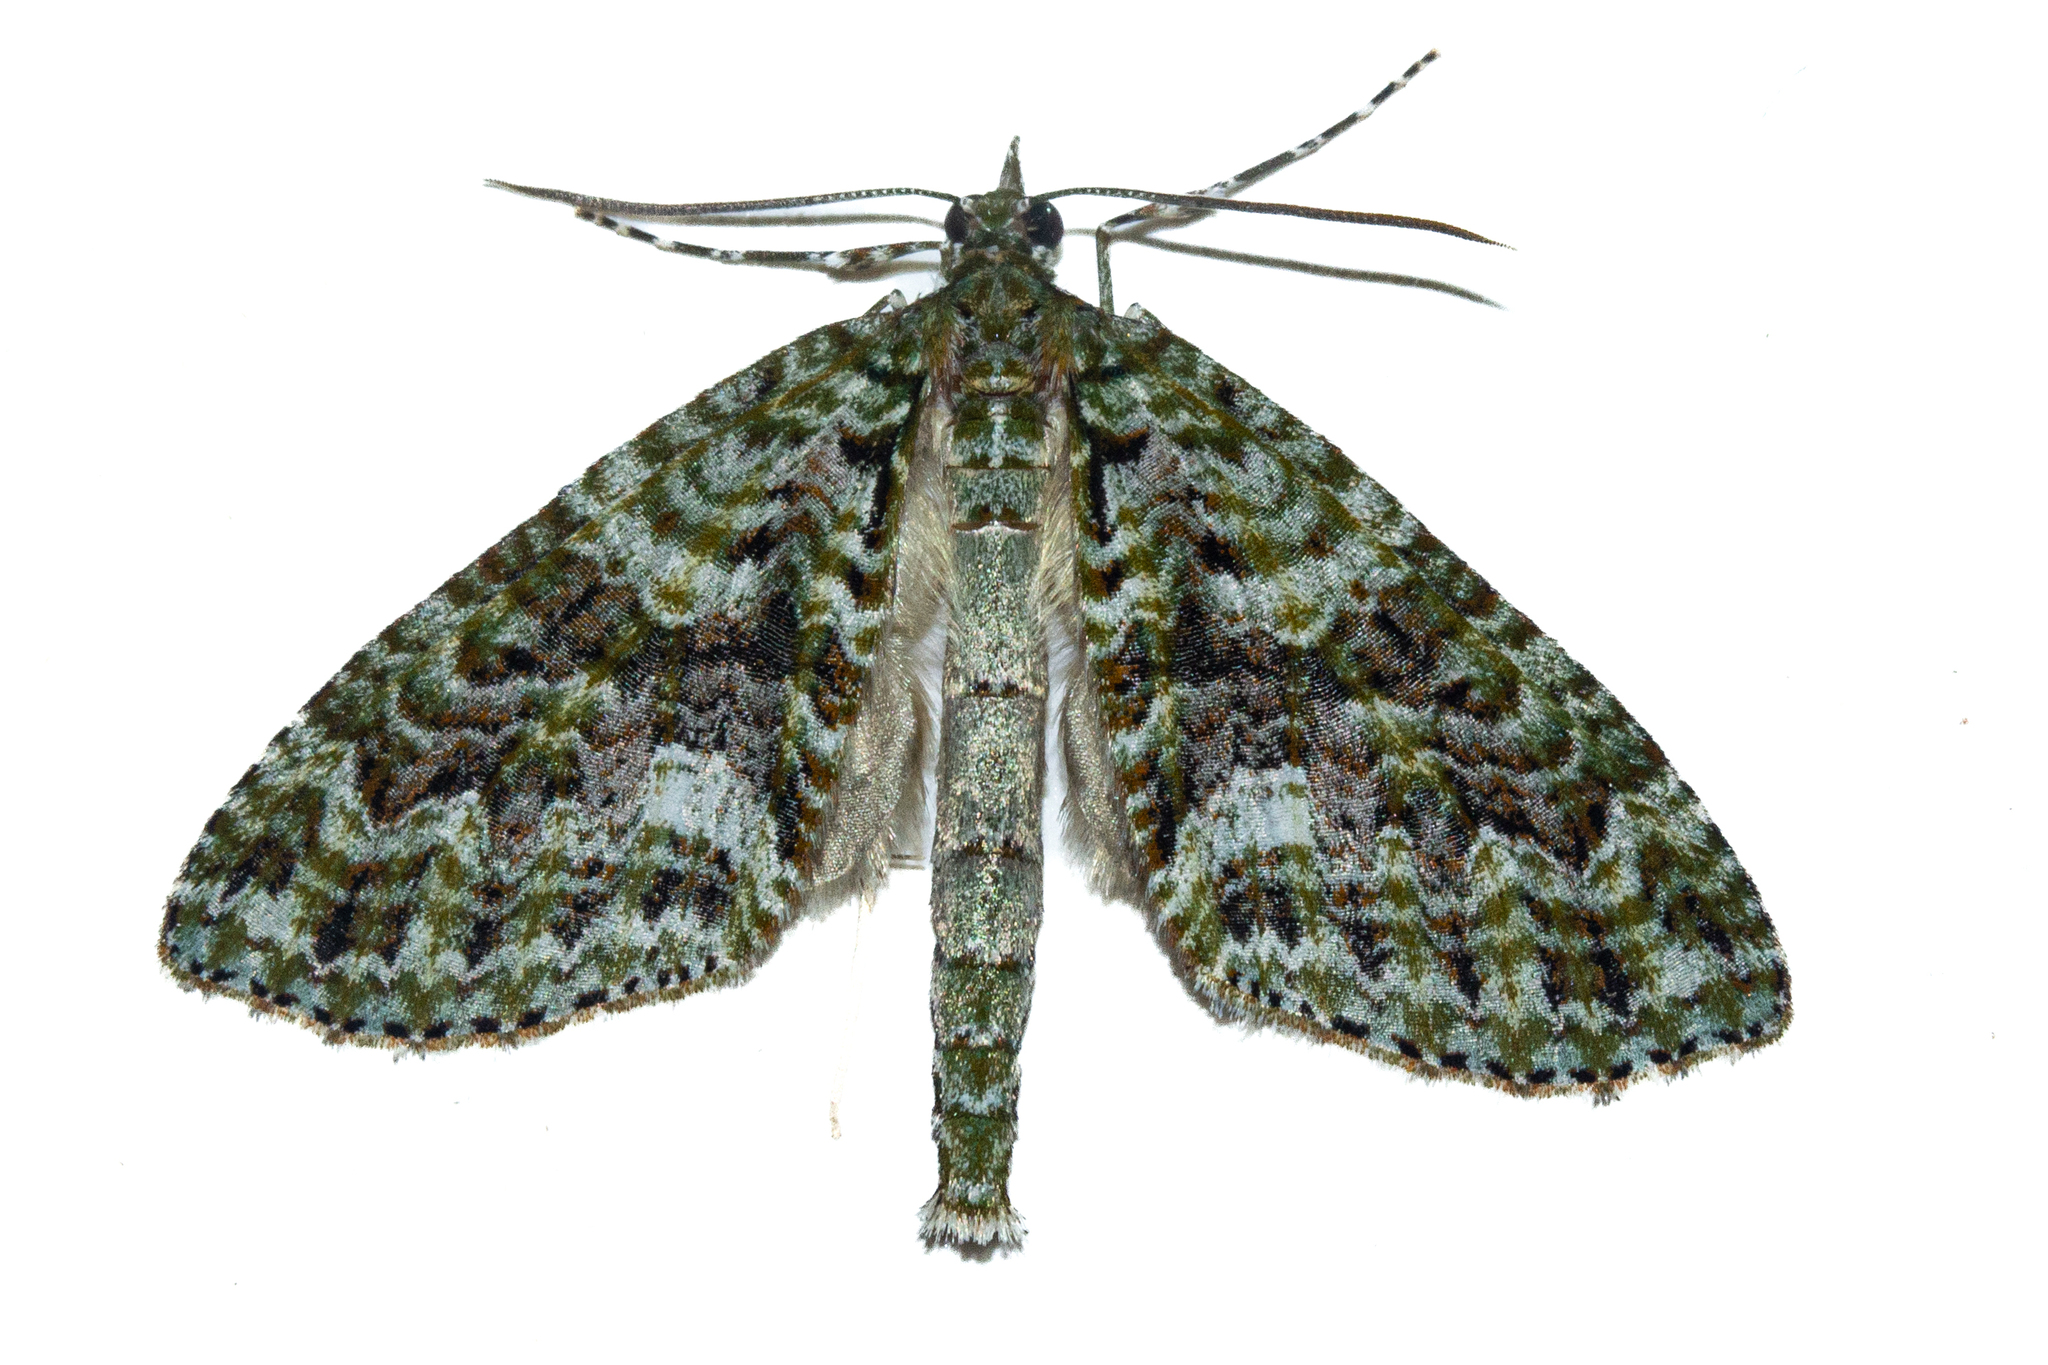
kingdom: Animalia
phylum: Arthropoda
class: Insecta
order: Lepidoptera
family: Geometridae
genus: Tatosoma
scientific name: Tatosoma agrionata
